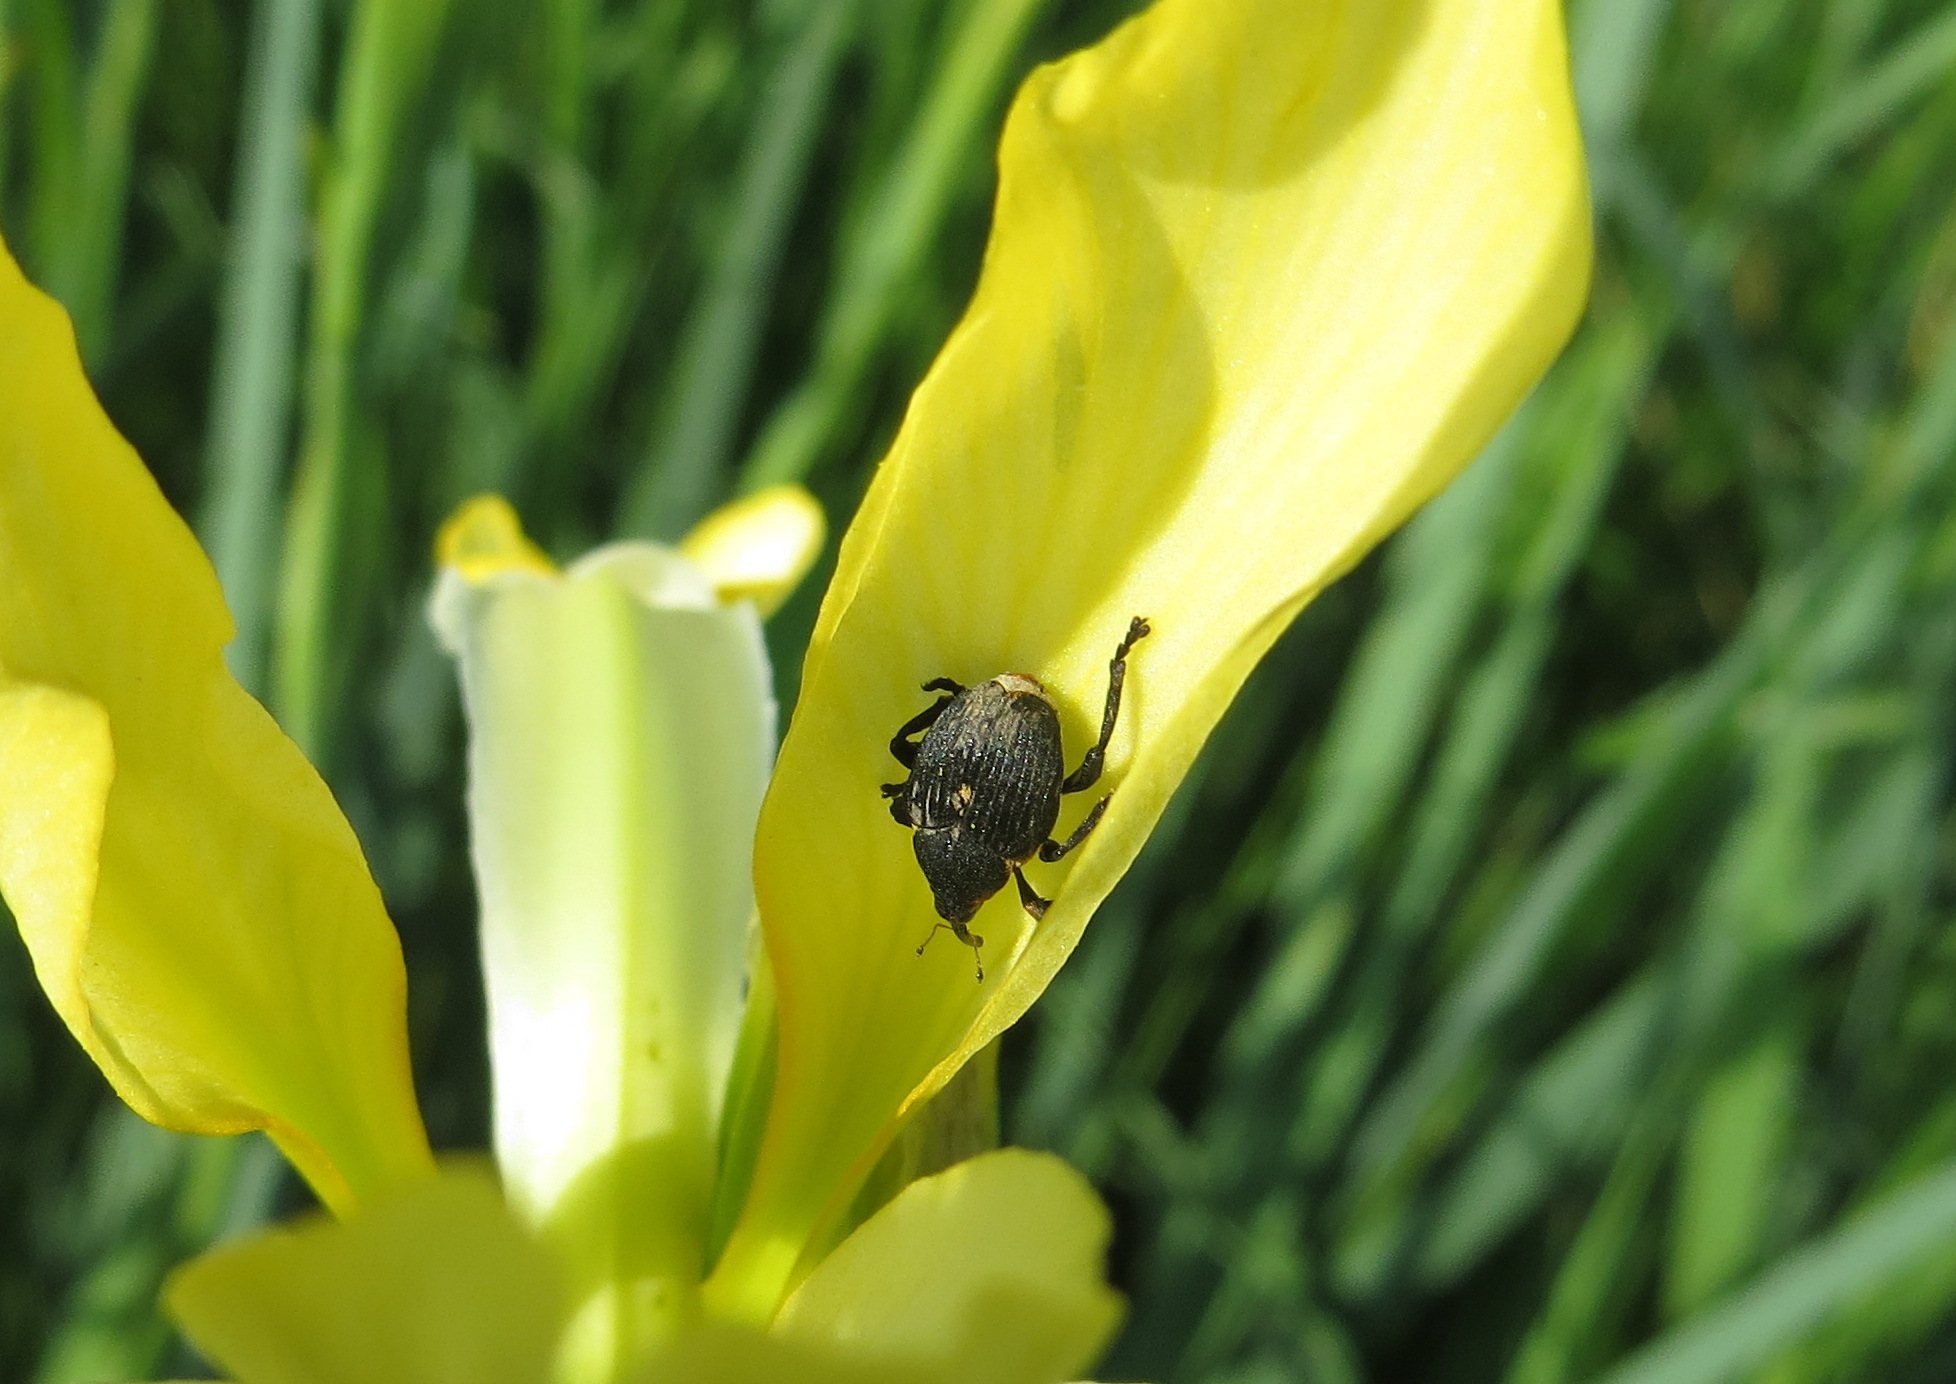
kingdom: Animalia
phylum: Arthropoda
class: Insecta
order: Coleoptera
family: Curculionidae
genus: Mononychus
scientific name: Mononychus punctumalbum
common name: Iris weevil
